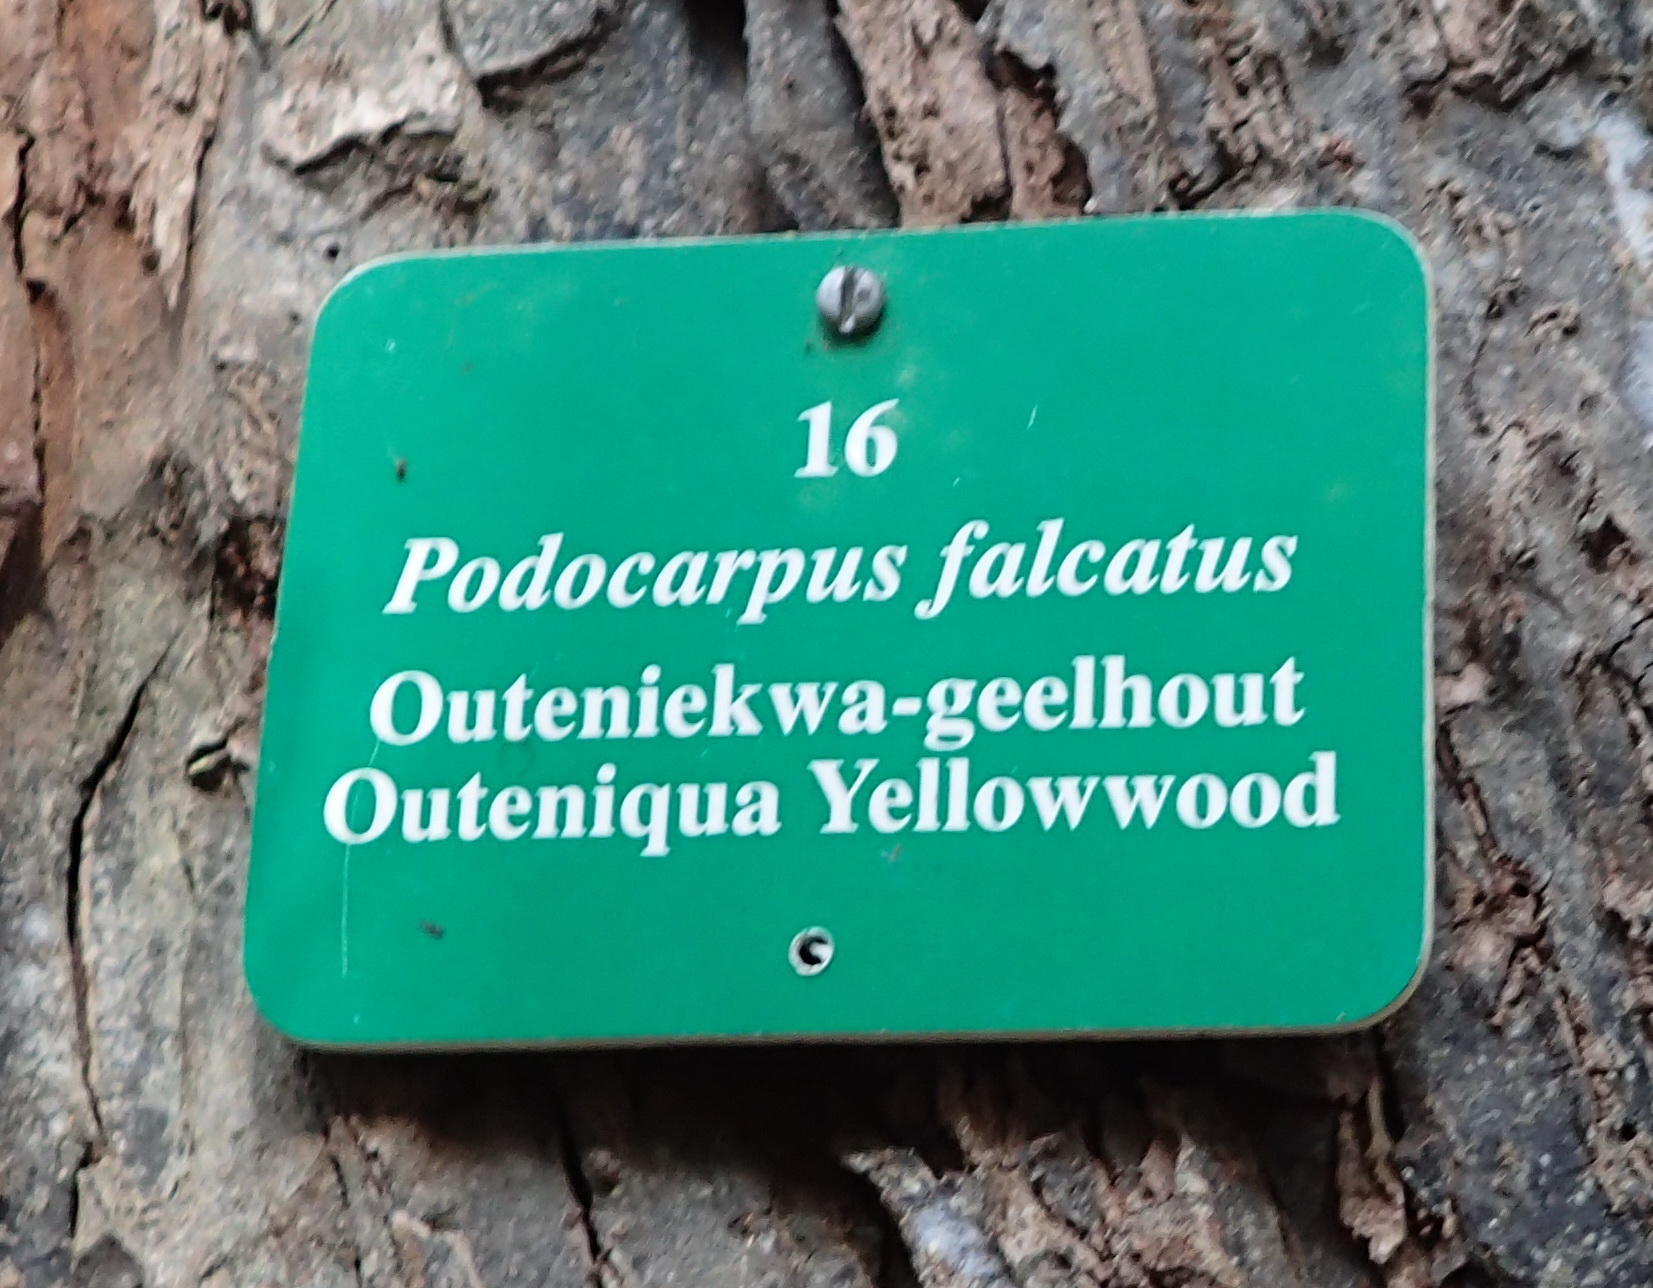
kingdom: Plantae
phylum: Tracheophyta
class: Pinopsida
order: Pinales
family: Podocarpaceae
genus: Afrocarpus
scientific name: Afrocarpus falcatus
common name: Bastard yellowwood
